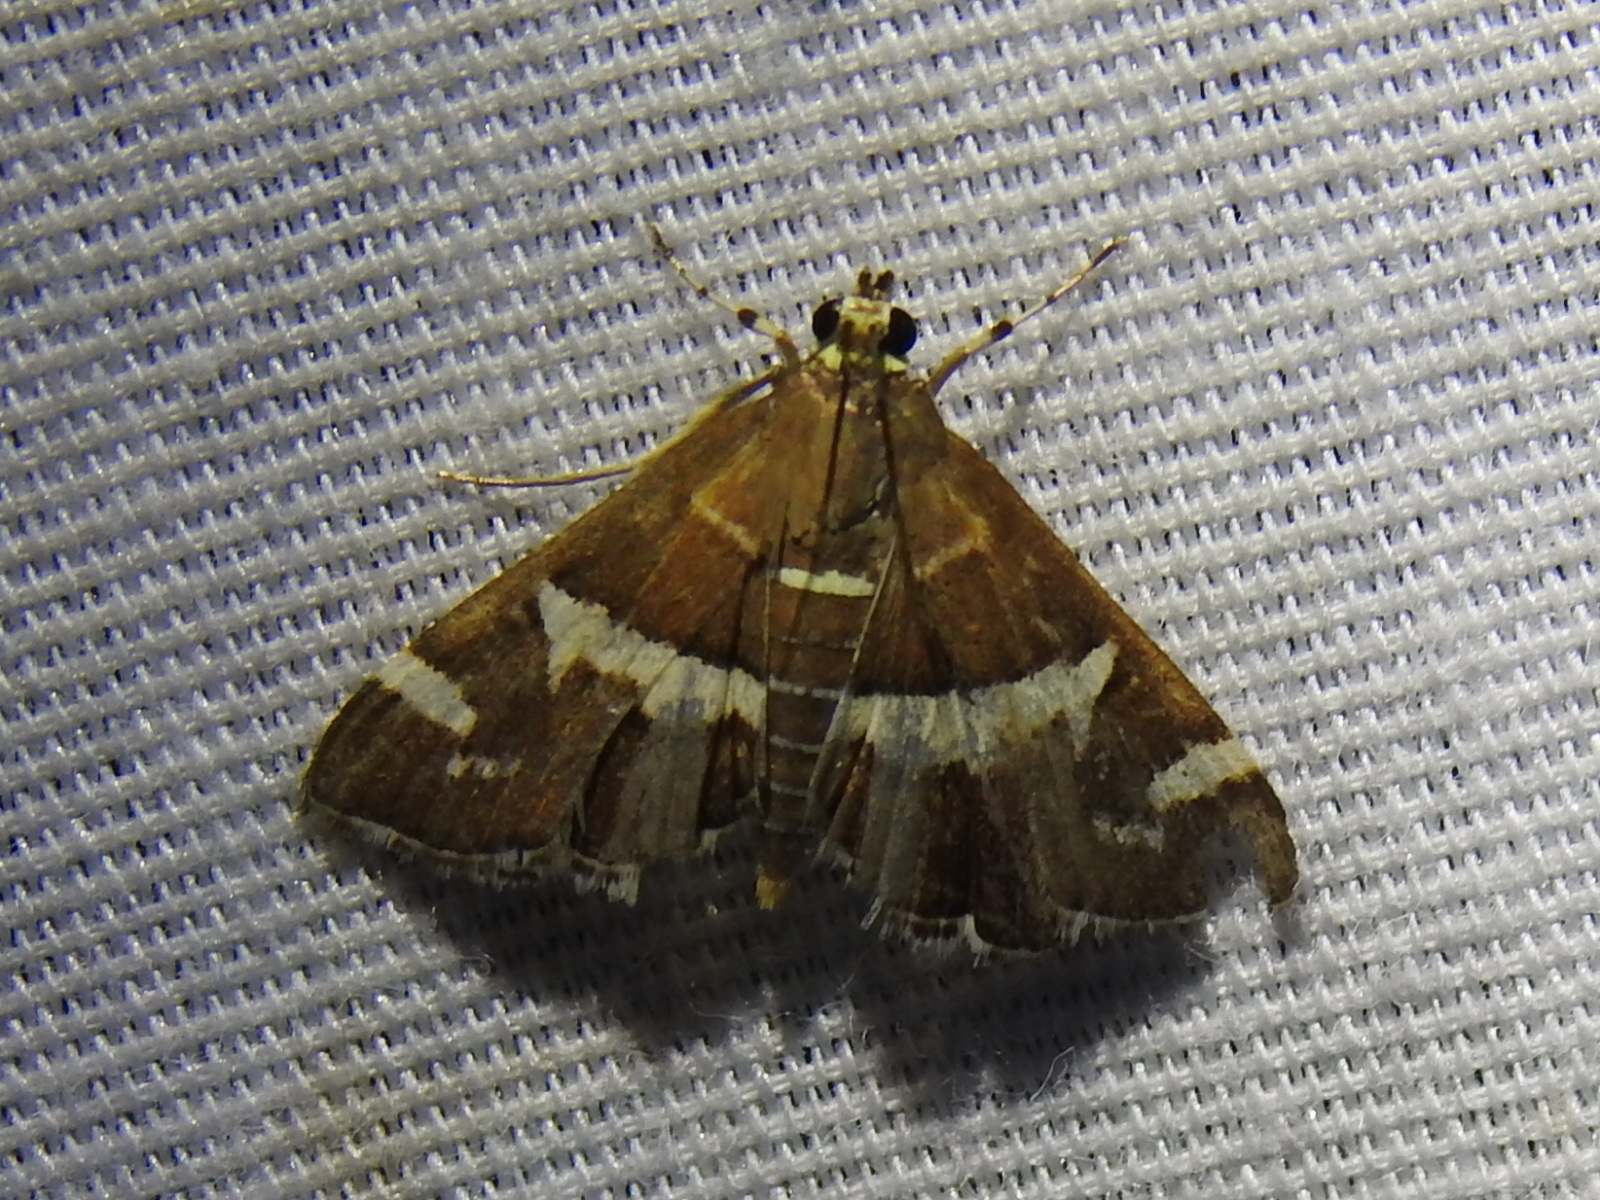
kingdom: Animalia
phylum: Arthropoda
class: Insecta
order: Lepidoptera
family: Crambidae
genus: Spoladea
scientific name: Spoladea recurvalis
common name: Beet webworm moth
